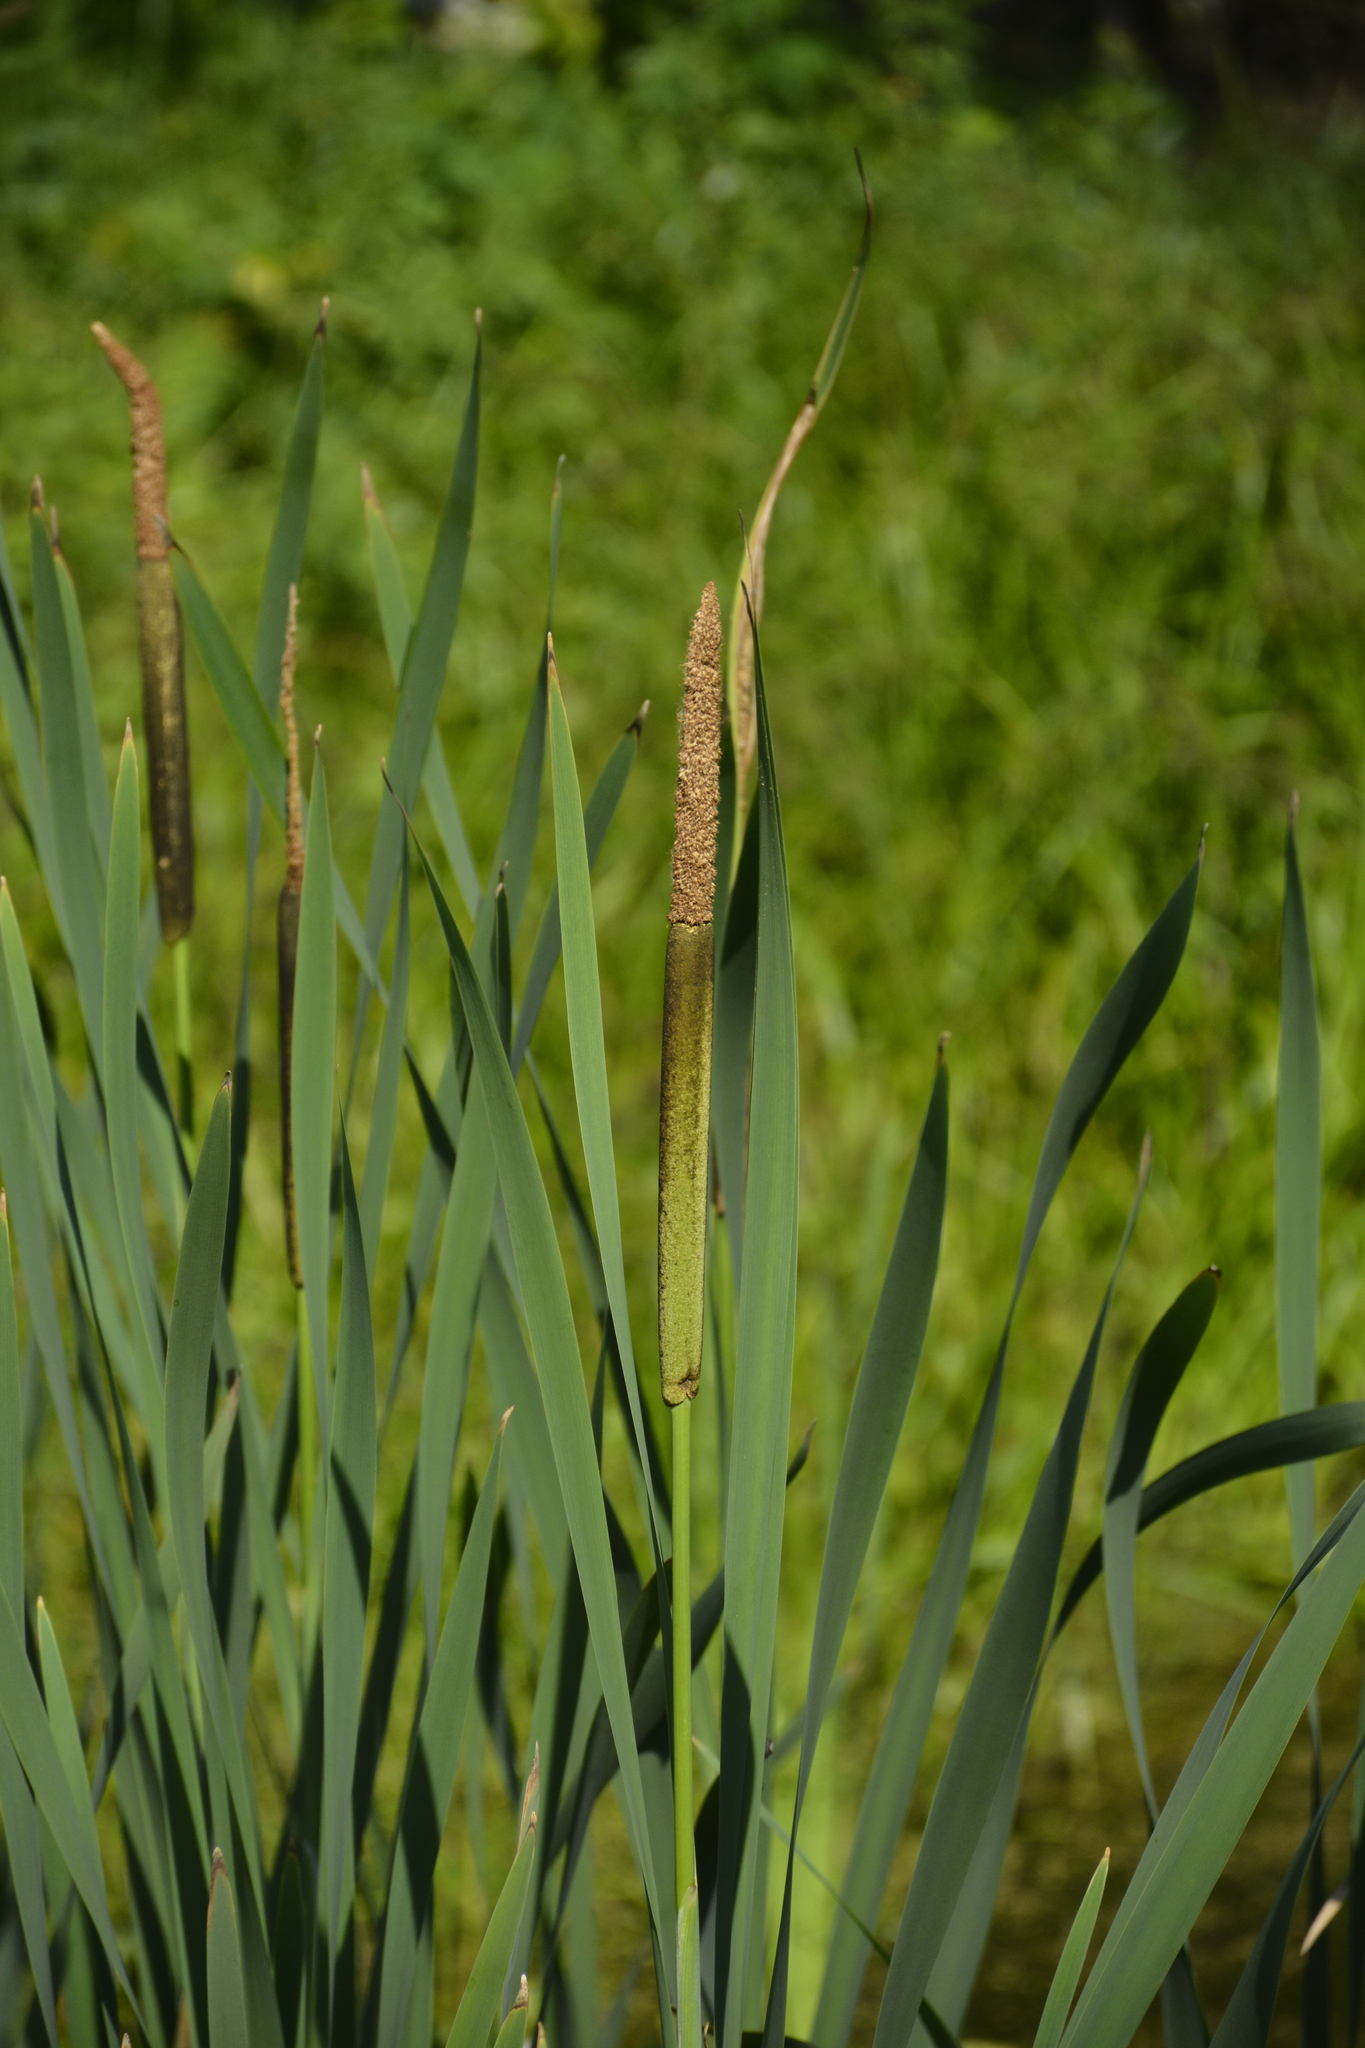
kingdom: Plantae
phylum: Tracheophyta
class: Liliopsida
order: Poales
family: Typhaceae
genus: Typha
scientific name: Typha latifolia
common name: Broadleaf cattail
